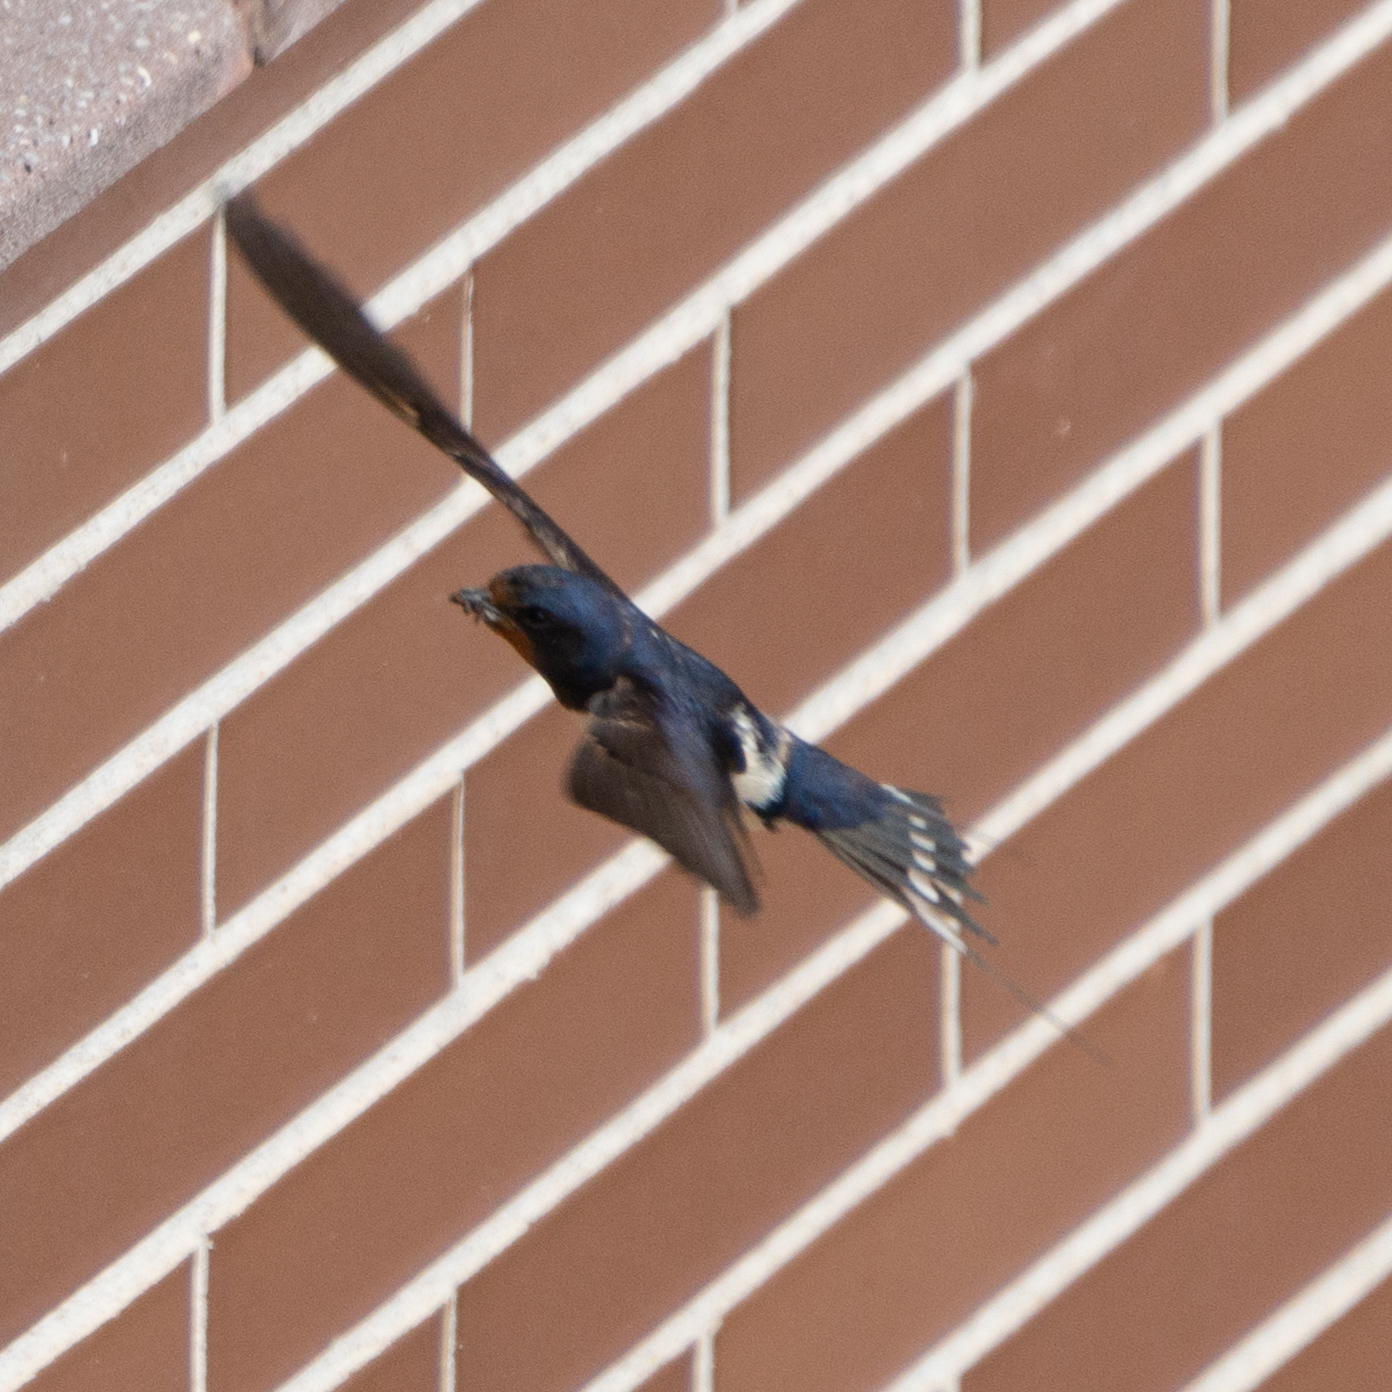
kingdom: Animalia
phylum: Chordata
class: Aves
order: Passeriformes
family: Hirundinidae
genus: Hirundo
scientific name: Hirundo rustica
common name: Barn swallow
